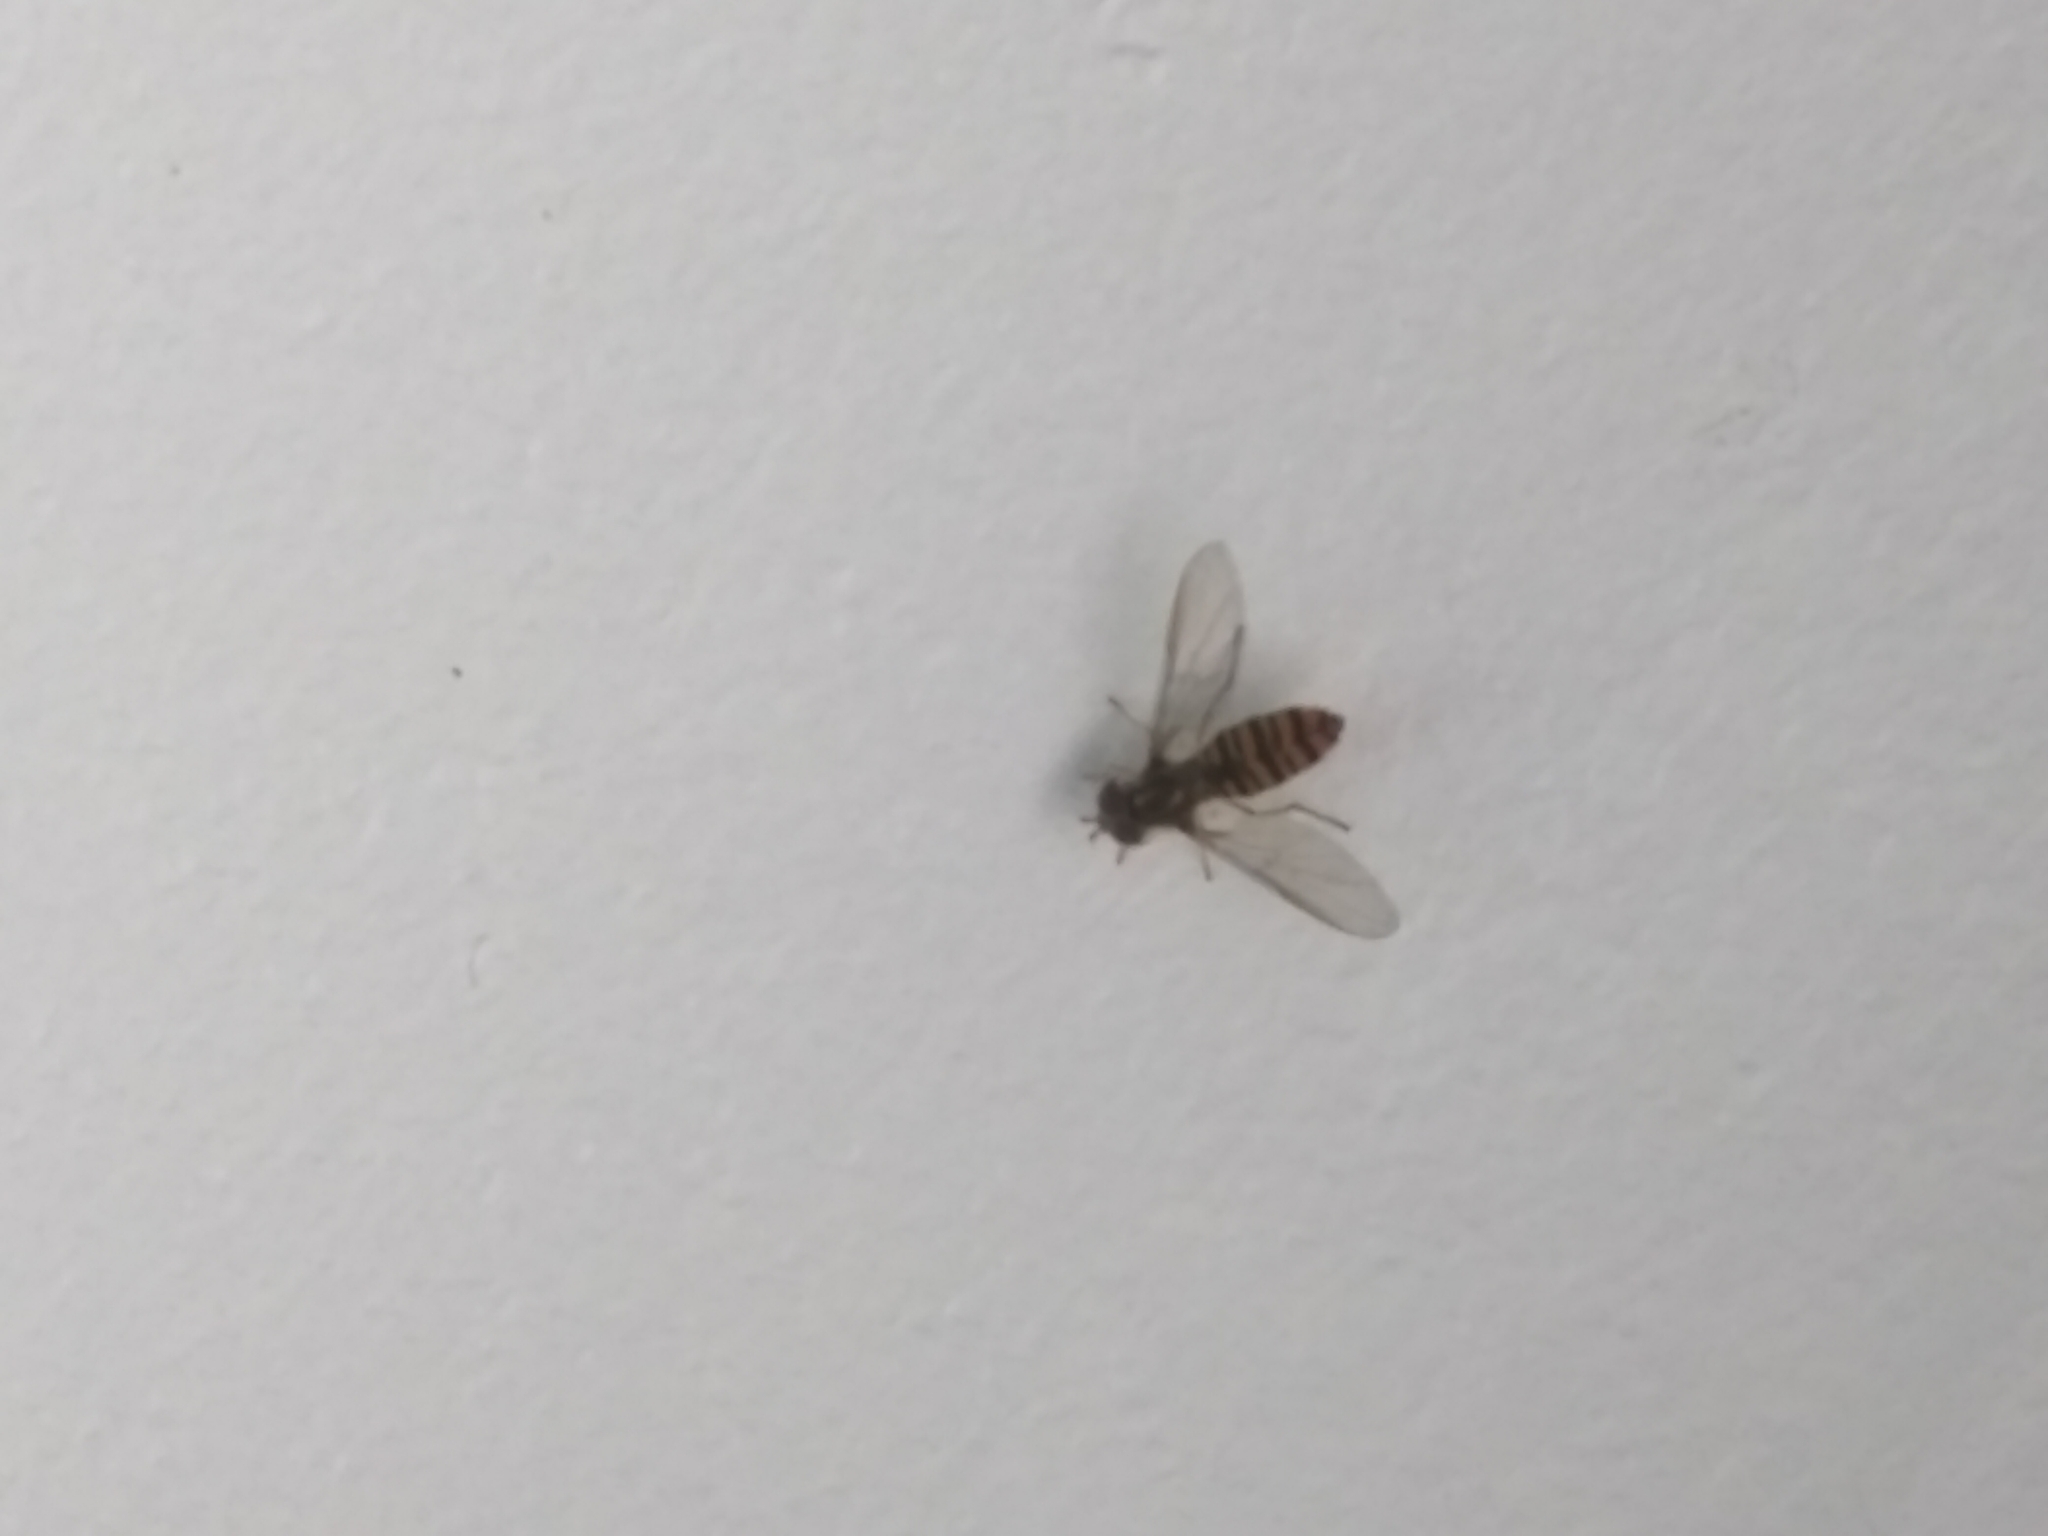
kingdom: Animalia
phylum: Arthropoda
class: Insecta
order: Diptera
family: Syrphidae
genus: Episyrphus
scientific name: Episyrphus balteatus
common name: Marmalade hoverfly
